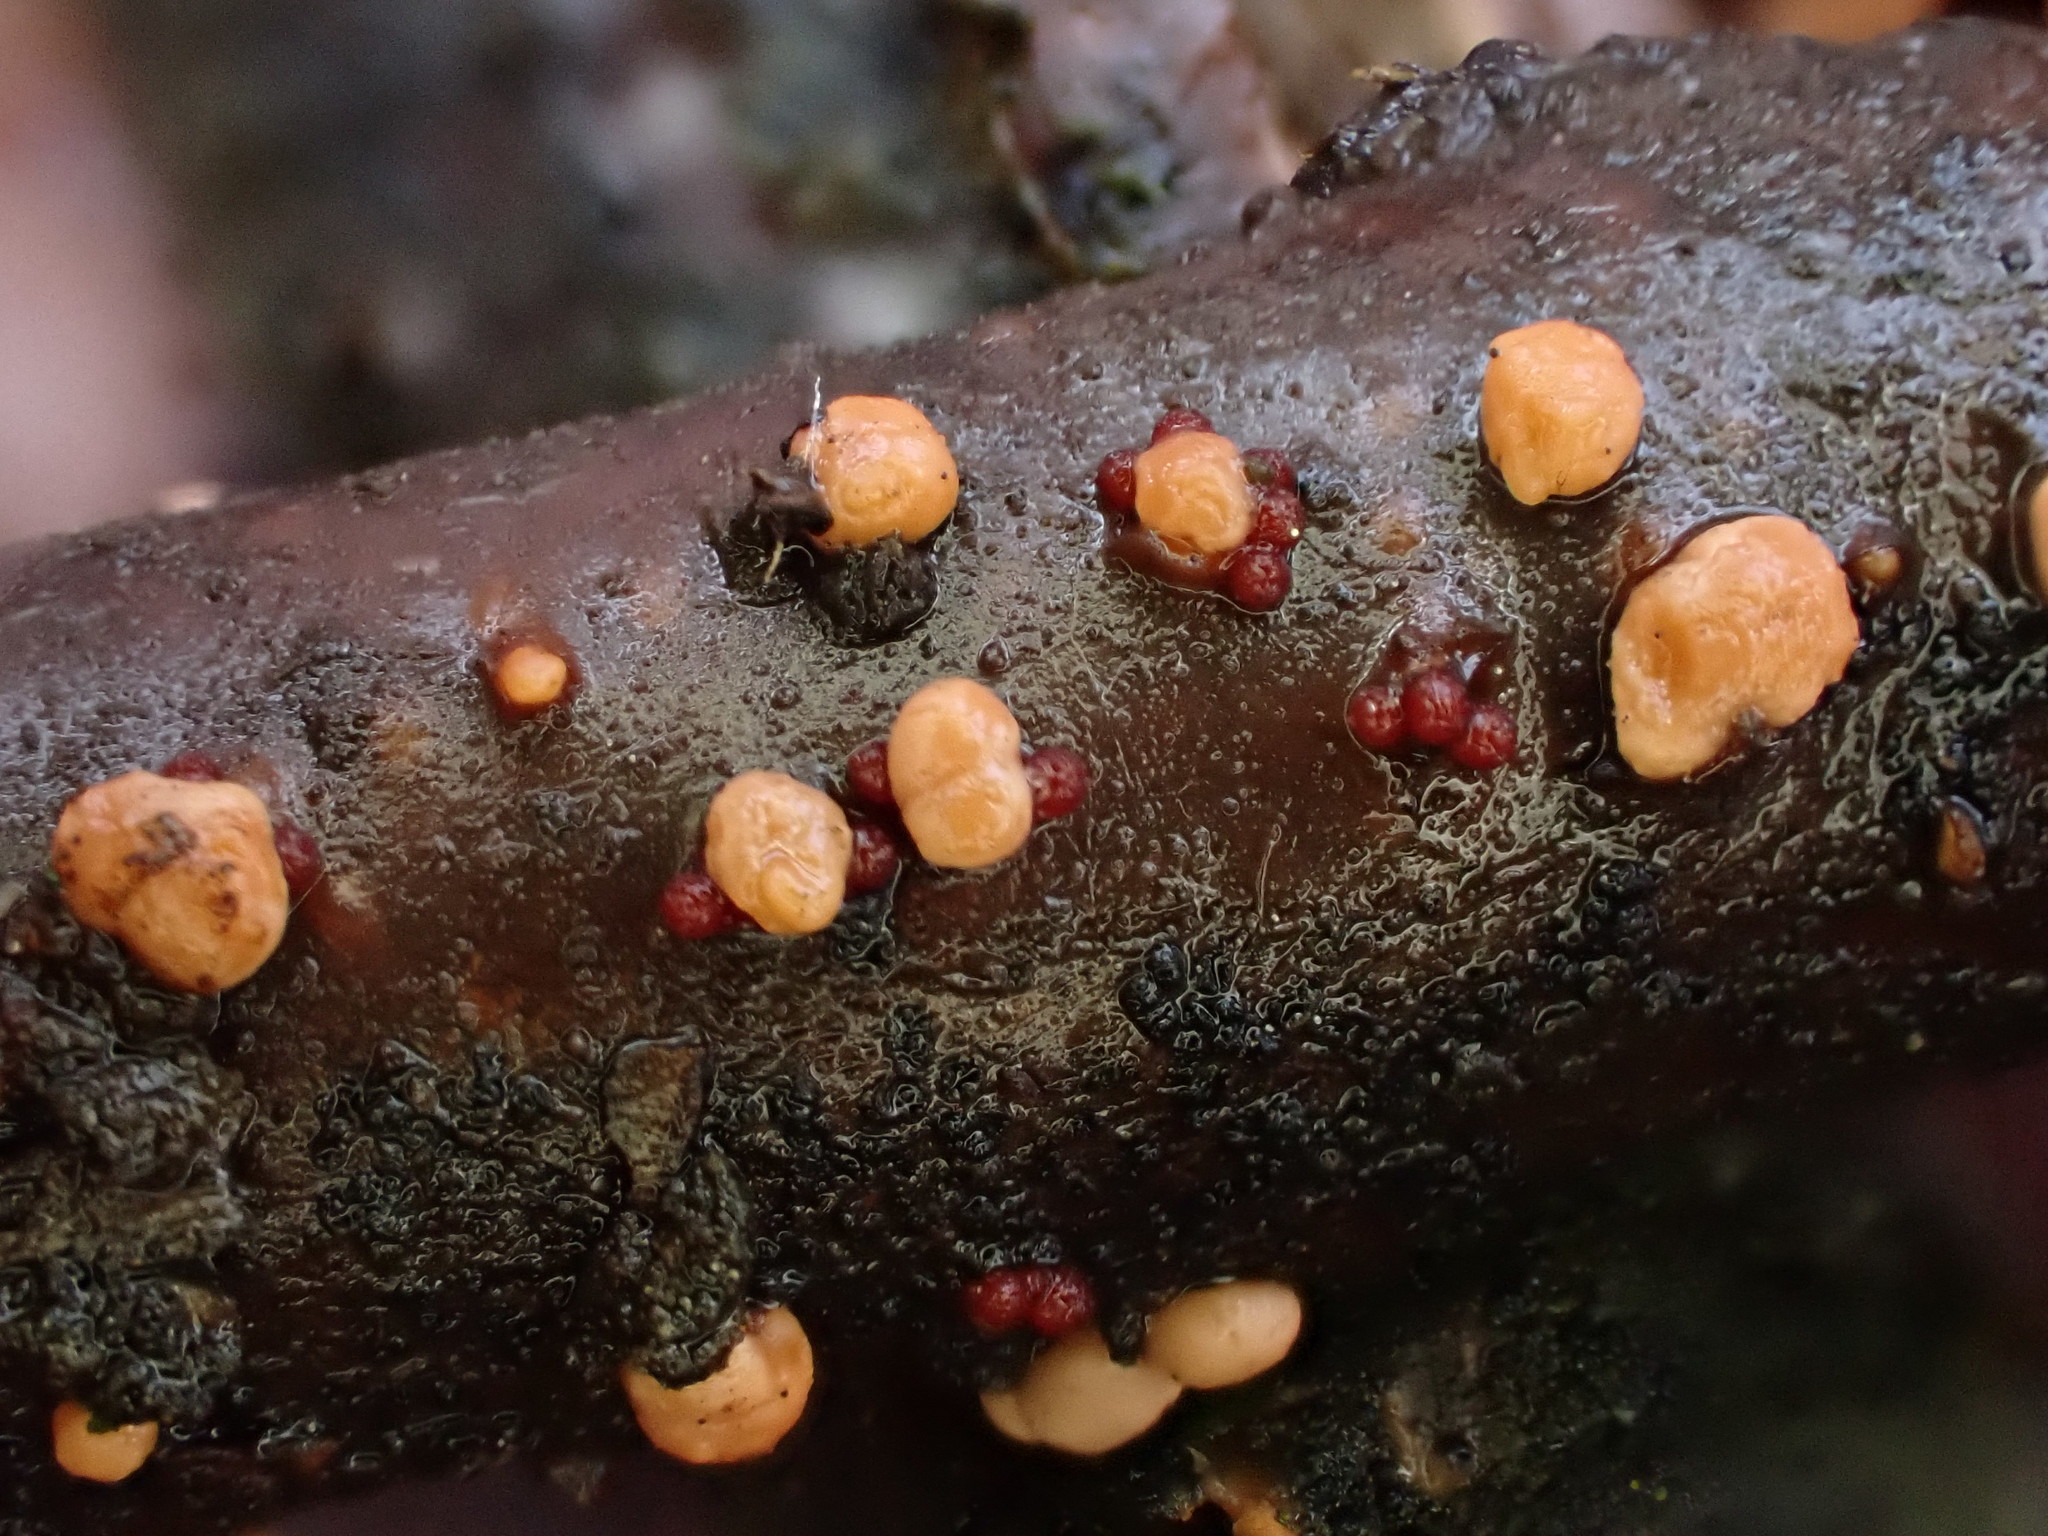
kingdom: Fungi
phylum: Ascomycota
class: Sordariomycetes
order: Hypocreales
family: Nectriaceae
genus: Nectria
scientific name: Nectria
